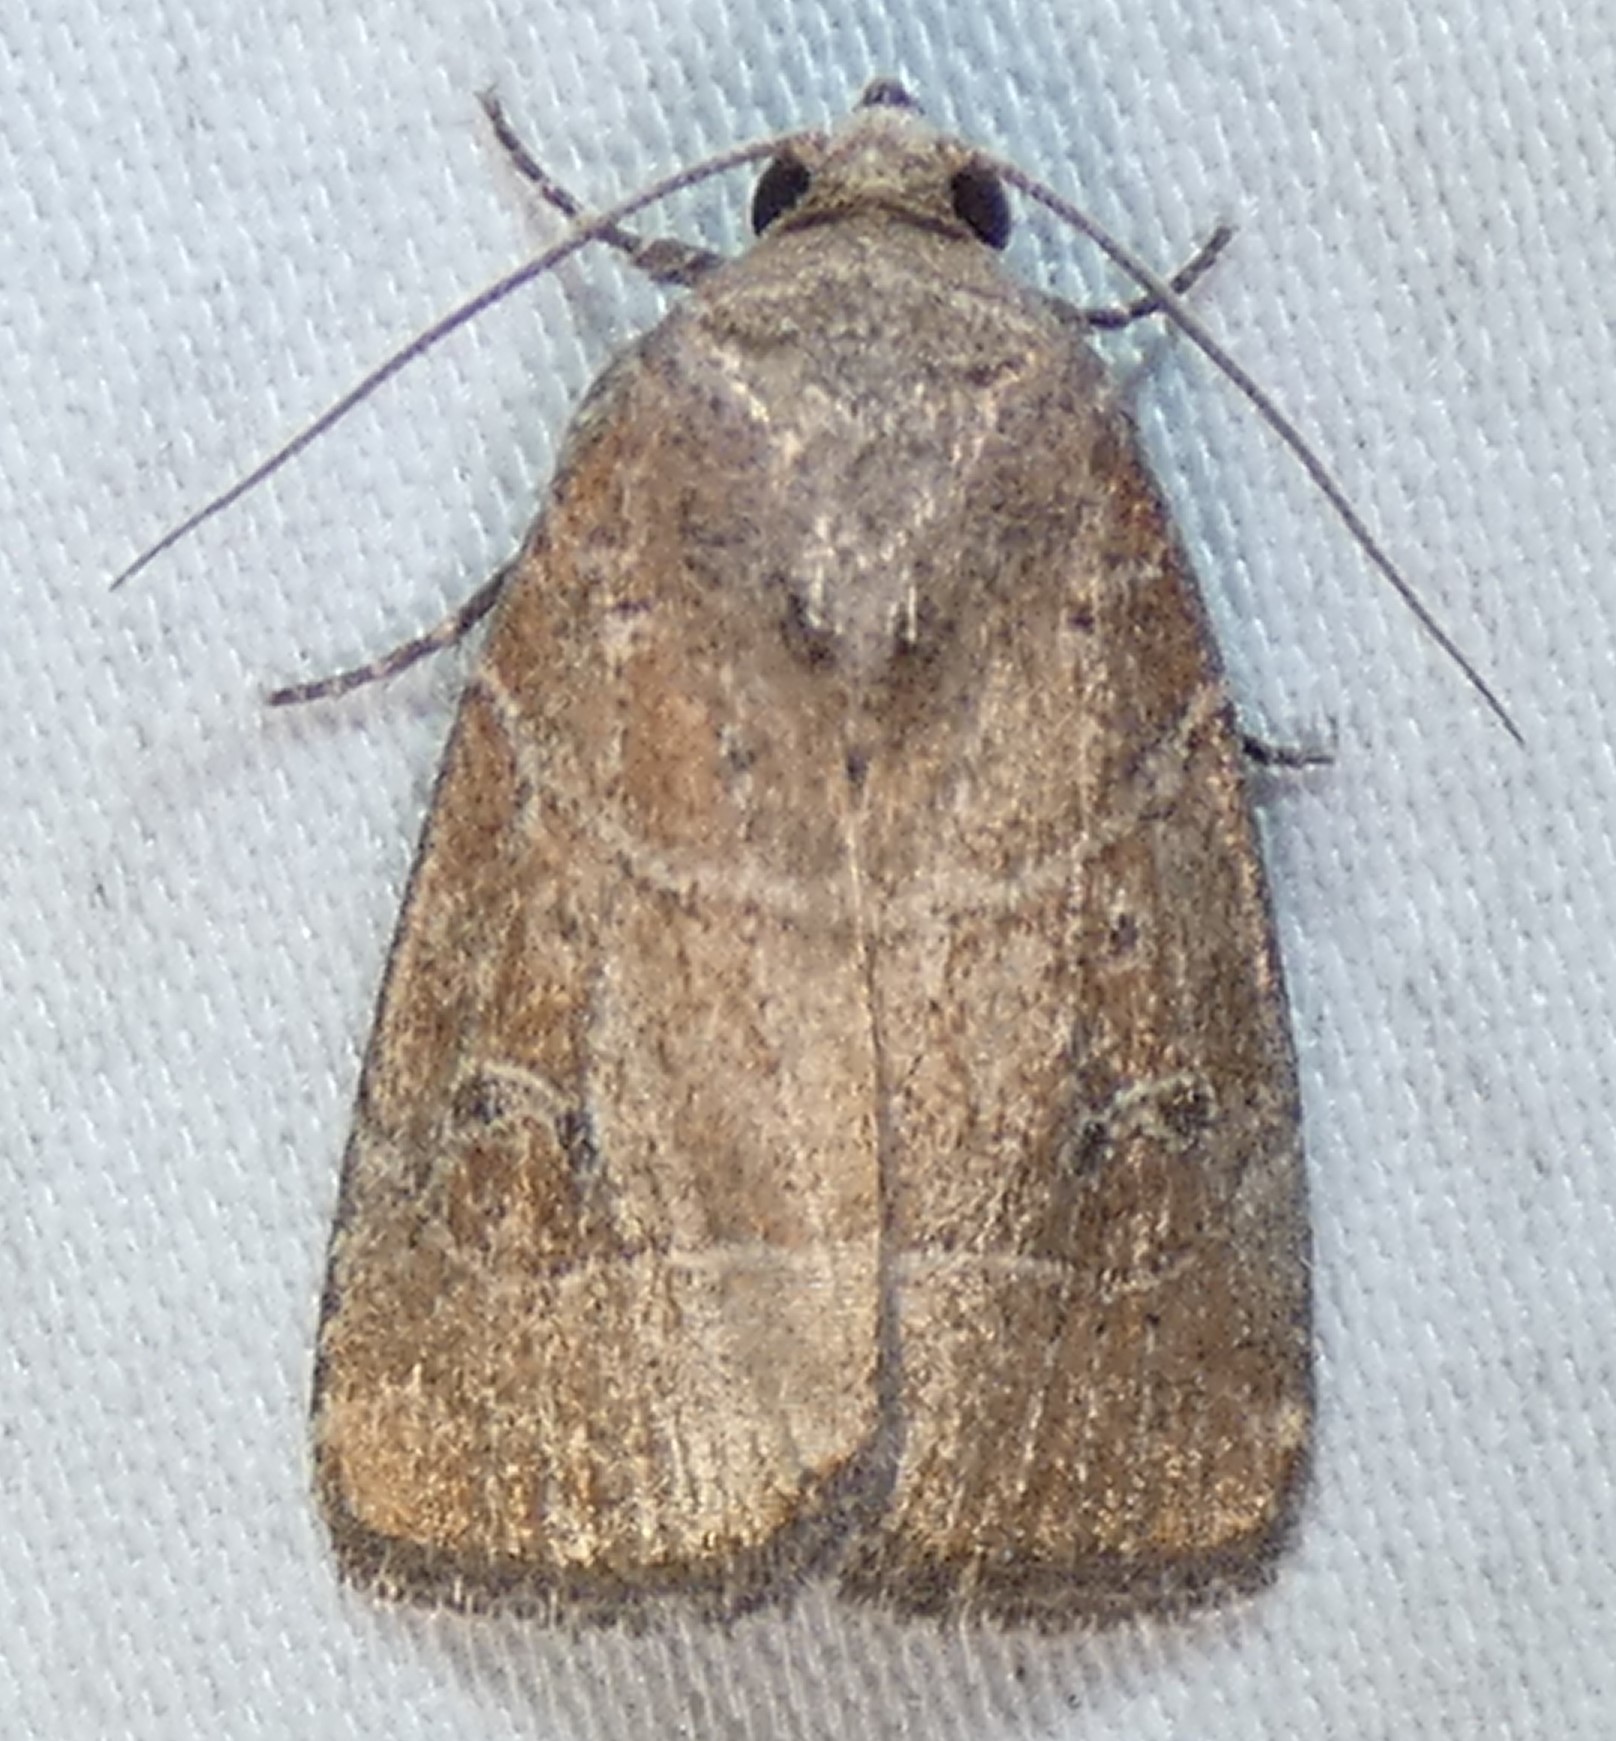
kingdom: Animalia
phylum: Arthropoda
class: Insecta
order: Lepidoptera
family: Noctuidae
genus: Elaphria
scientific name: Elaphria grata
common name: Grateful midget moth
